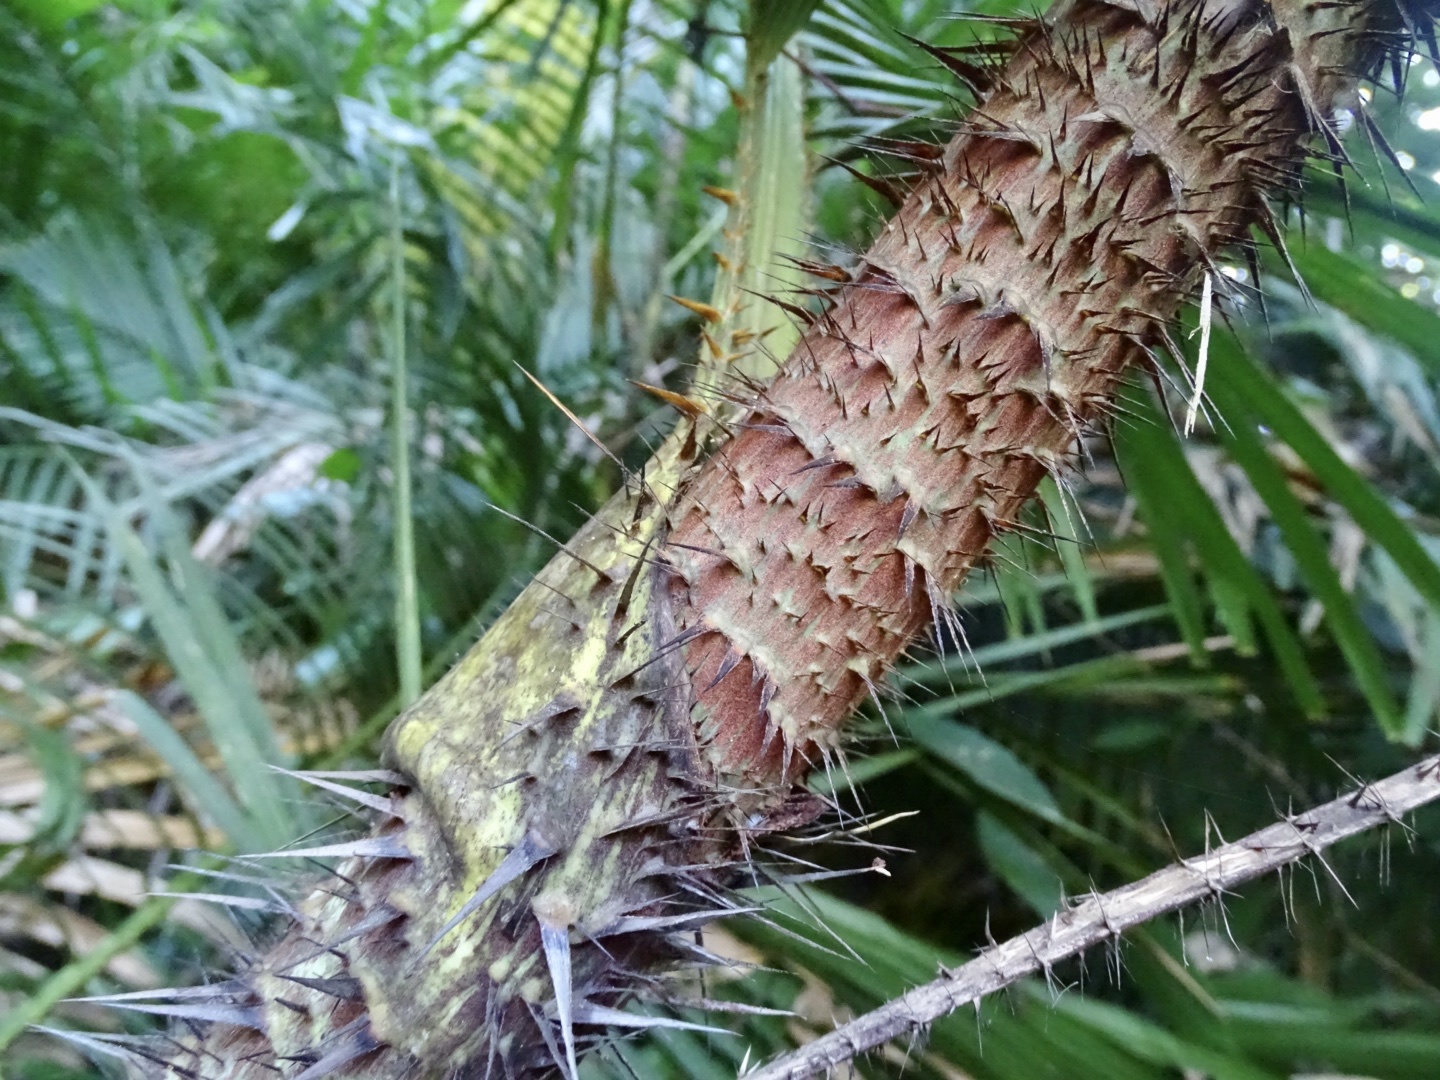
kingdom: Plantae
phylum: Tracheophyta
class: Liliopsida
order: Arecales
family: Arecaceae
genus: Calamus
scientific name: Calamus melanochaetes
